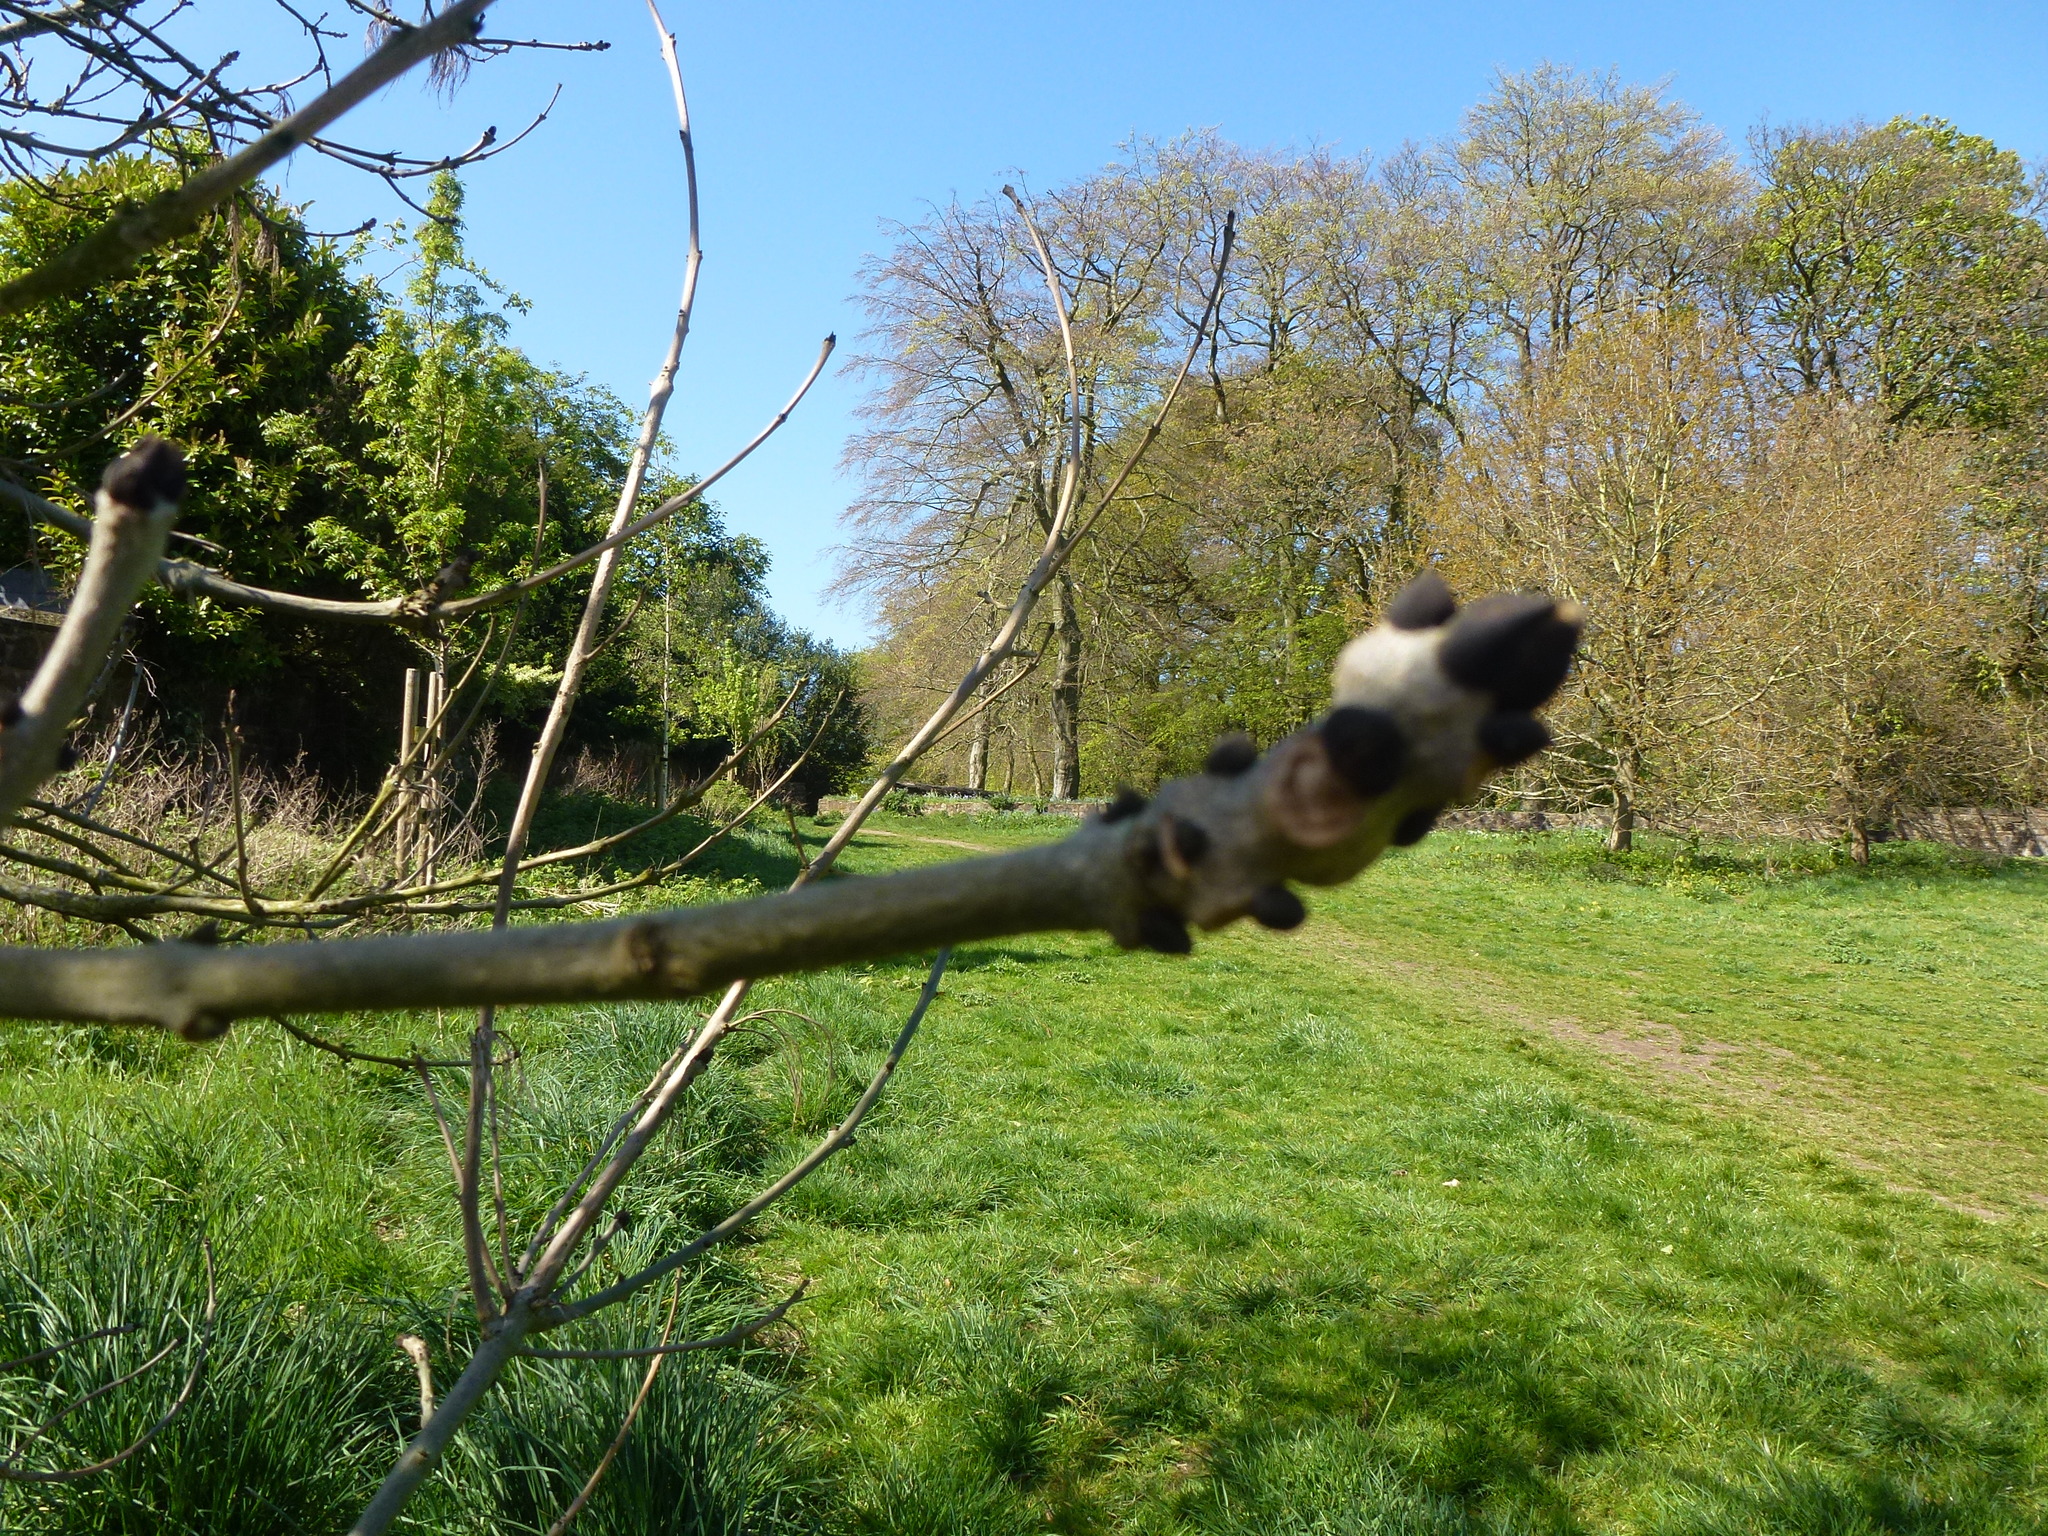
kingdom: Plantae
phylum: Tracheophyta
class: Magnoliopsida
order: Lamiales
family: Oleaceae
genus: Fraxinus
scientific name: Fraxinus excelsior
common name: European ash
